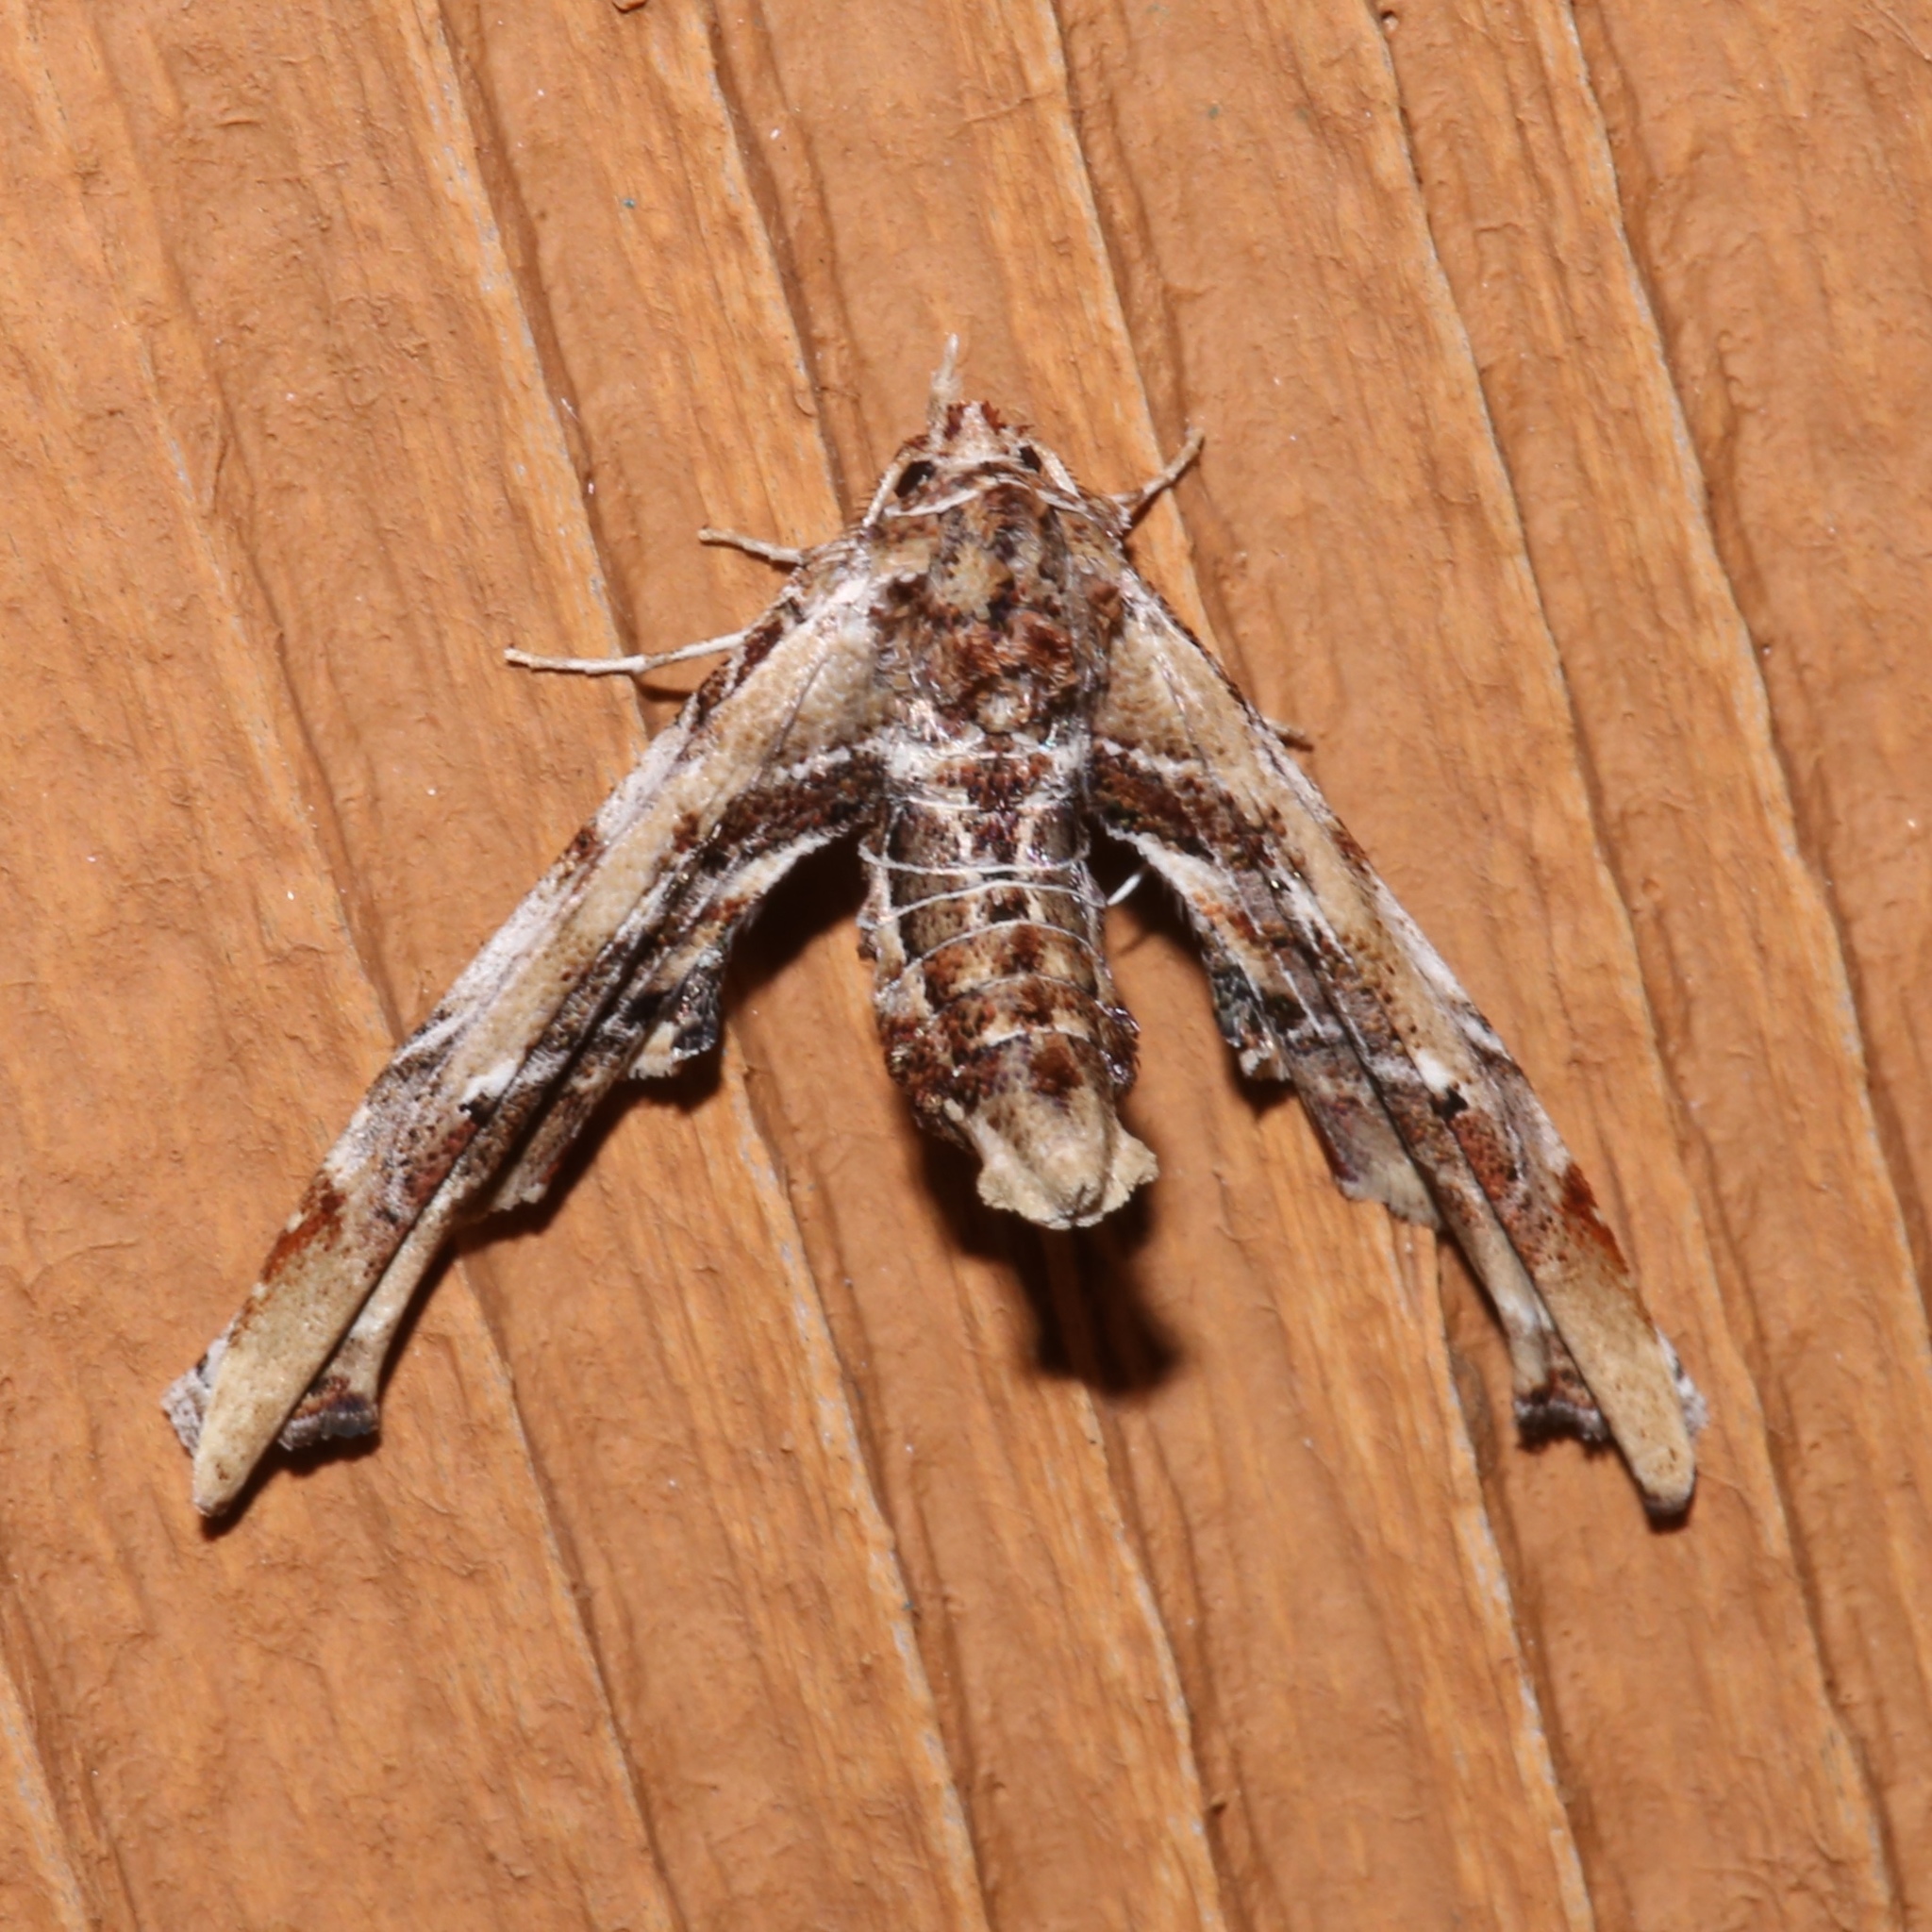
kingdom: Animalia
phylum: Arthropoda
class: Insecta
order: Lepidoptera
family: Euteliidae
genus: Marathyssa
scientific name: Marathyssa basalis
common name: Light marathyssa moth
